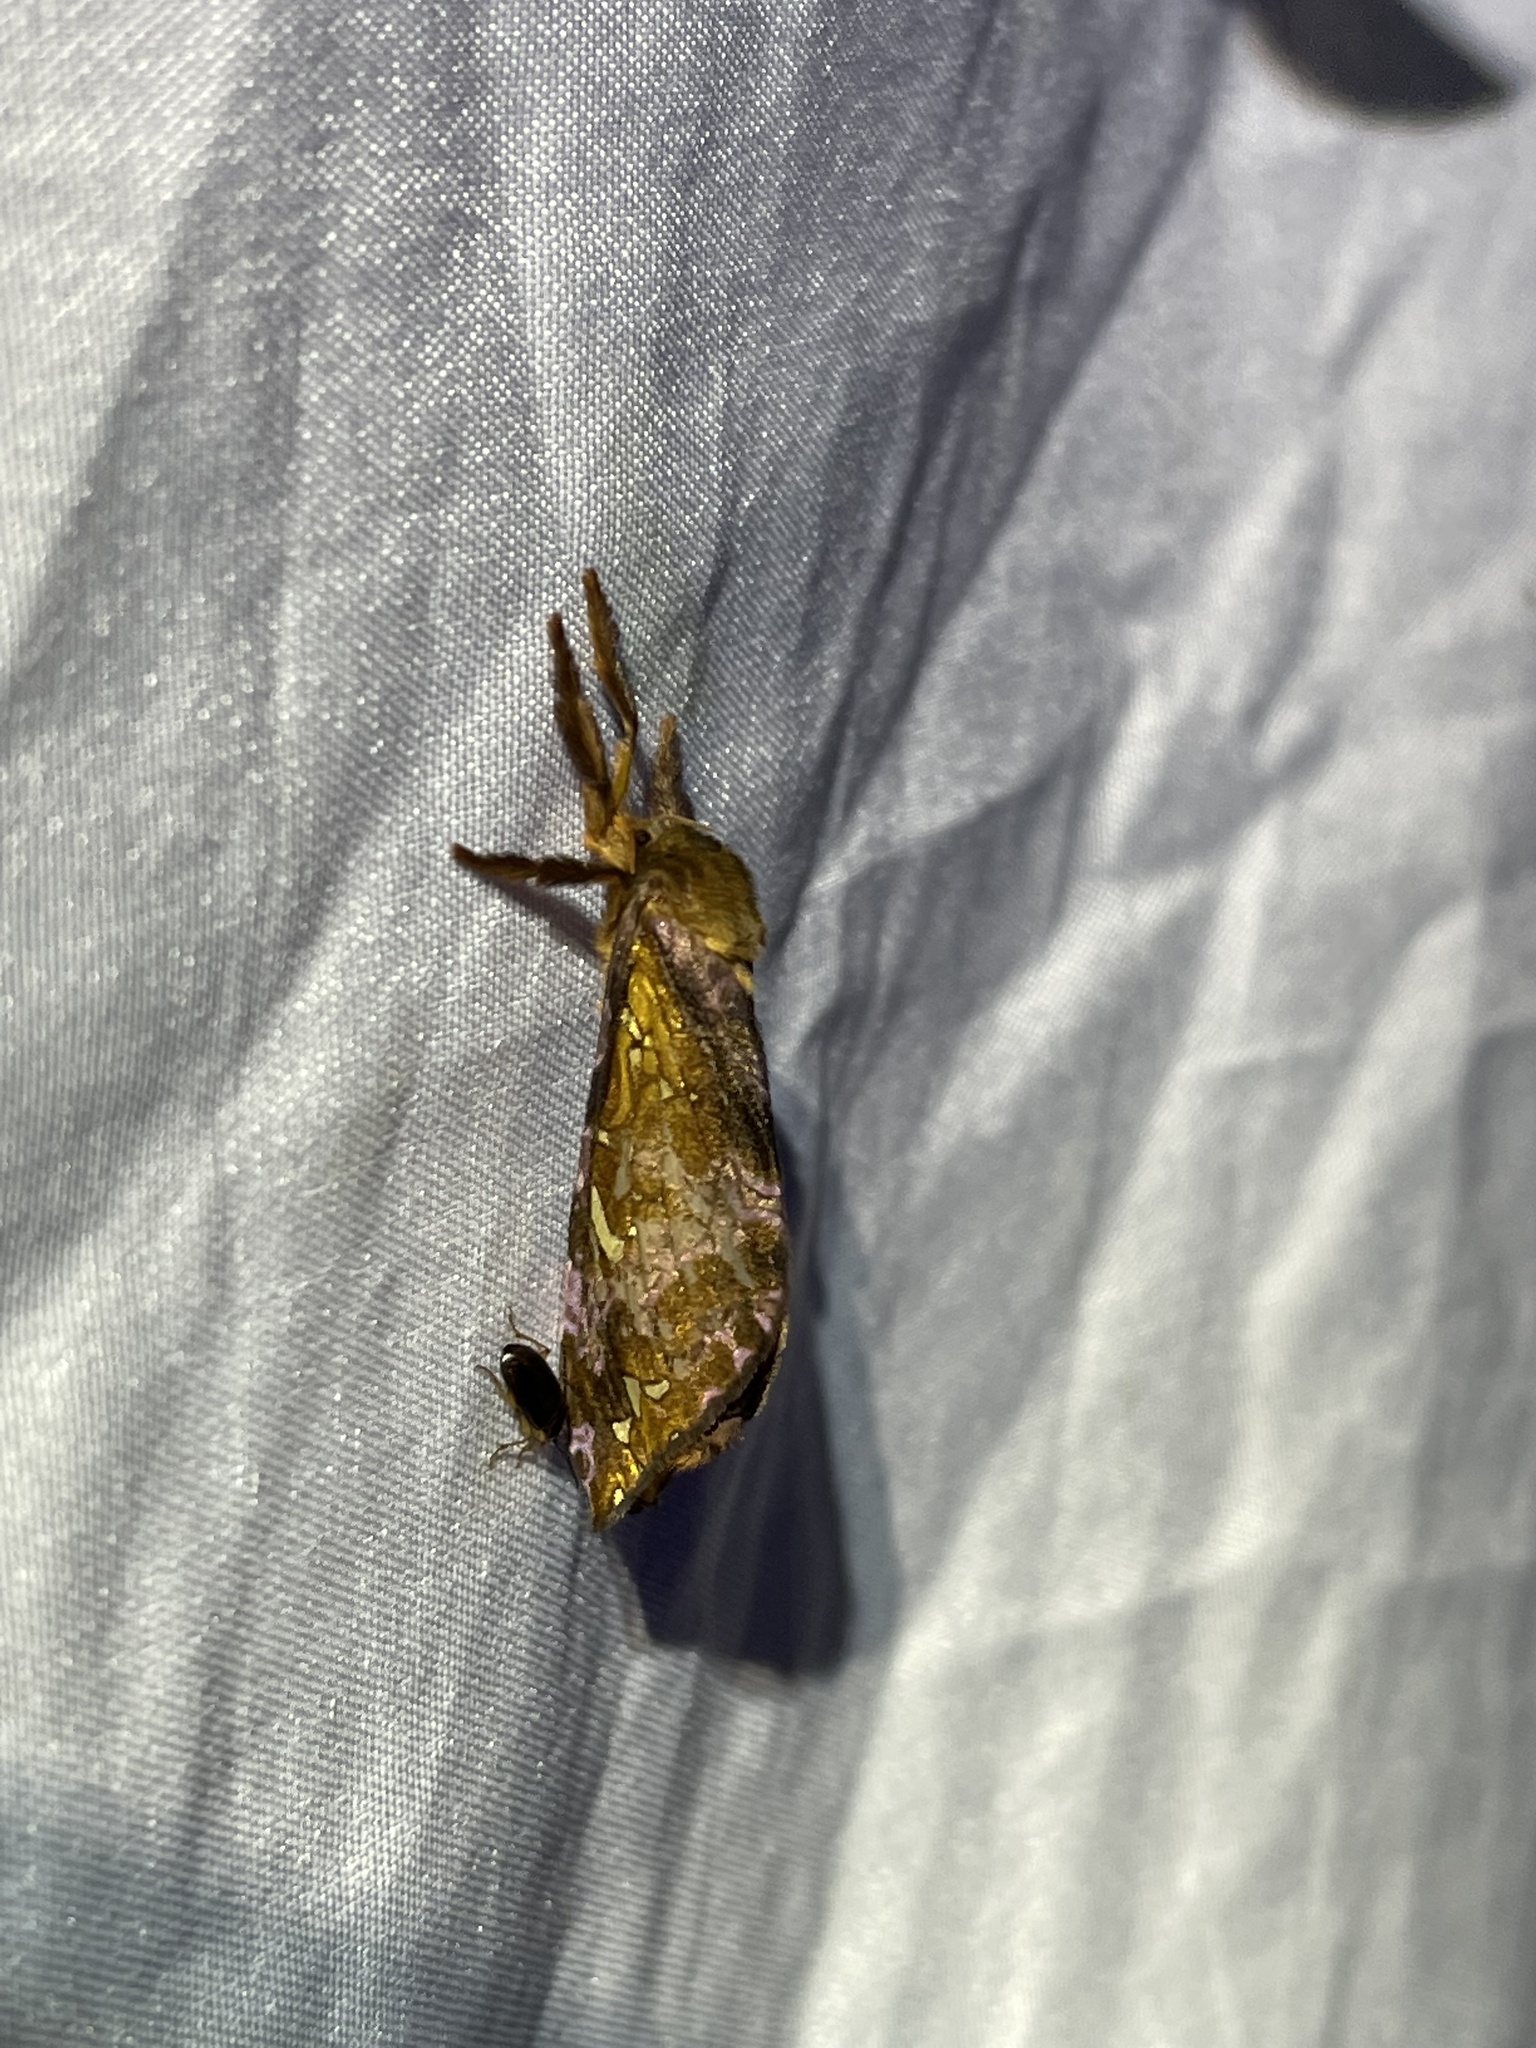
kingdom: Animalia
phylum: Arthropoda
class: Insecta
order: Lepidoptera
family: Hepialidae
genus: Sthenopis
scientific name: Sthenopis pretiosus
